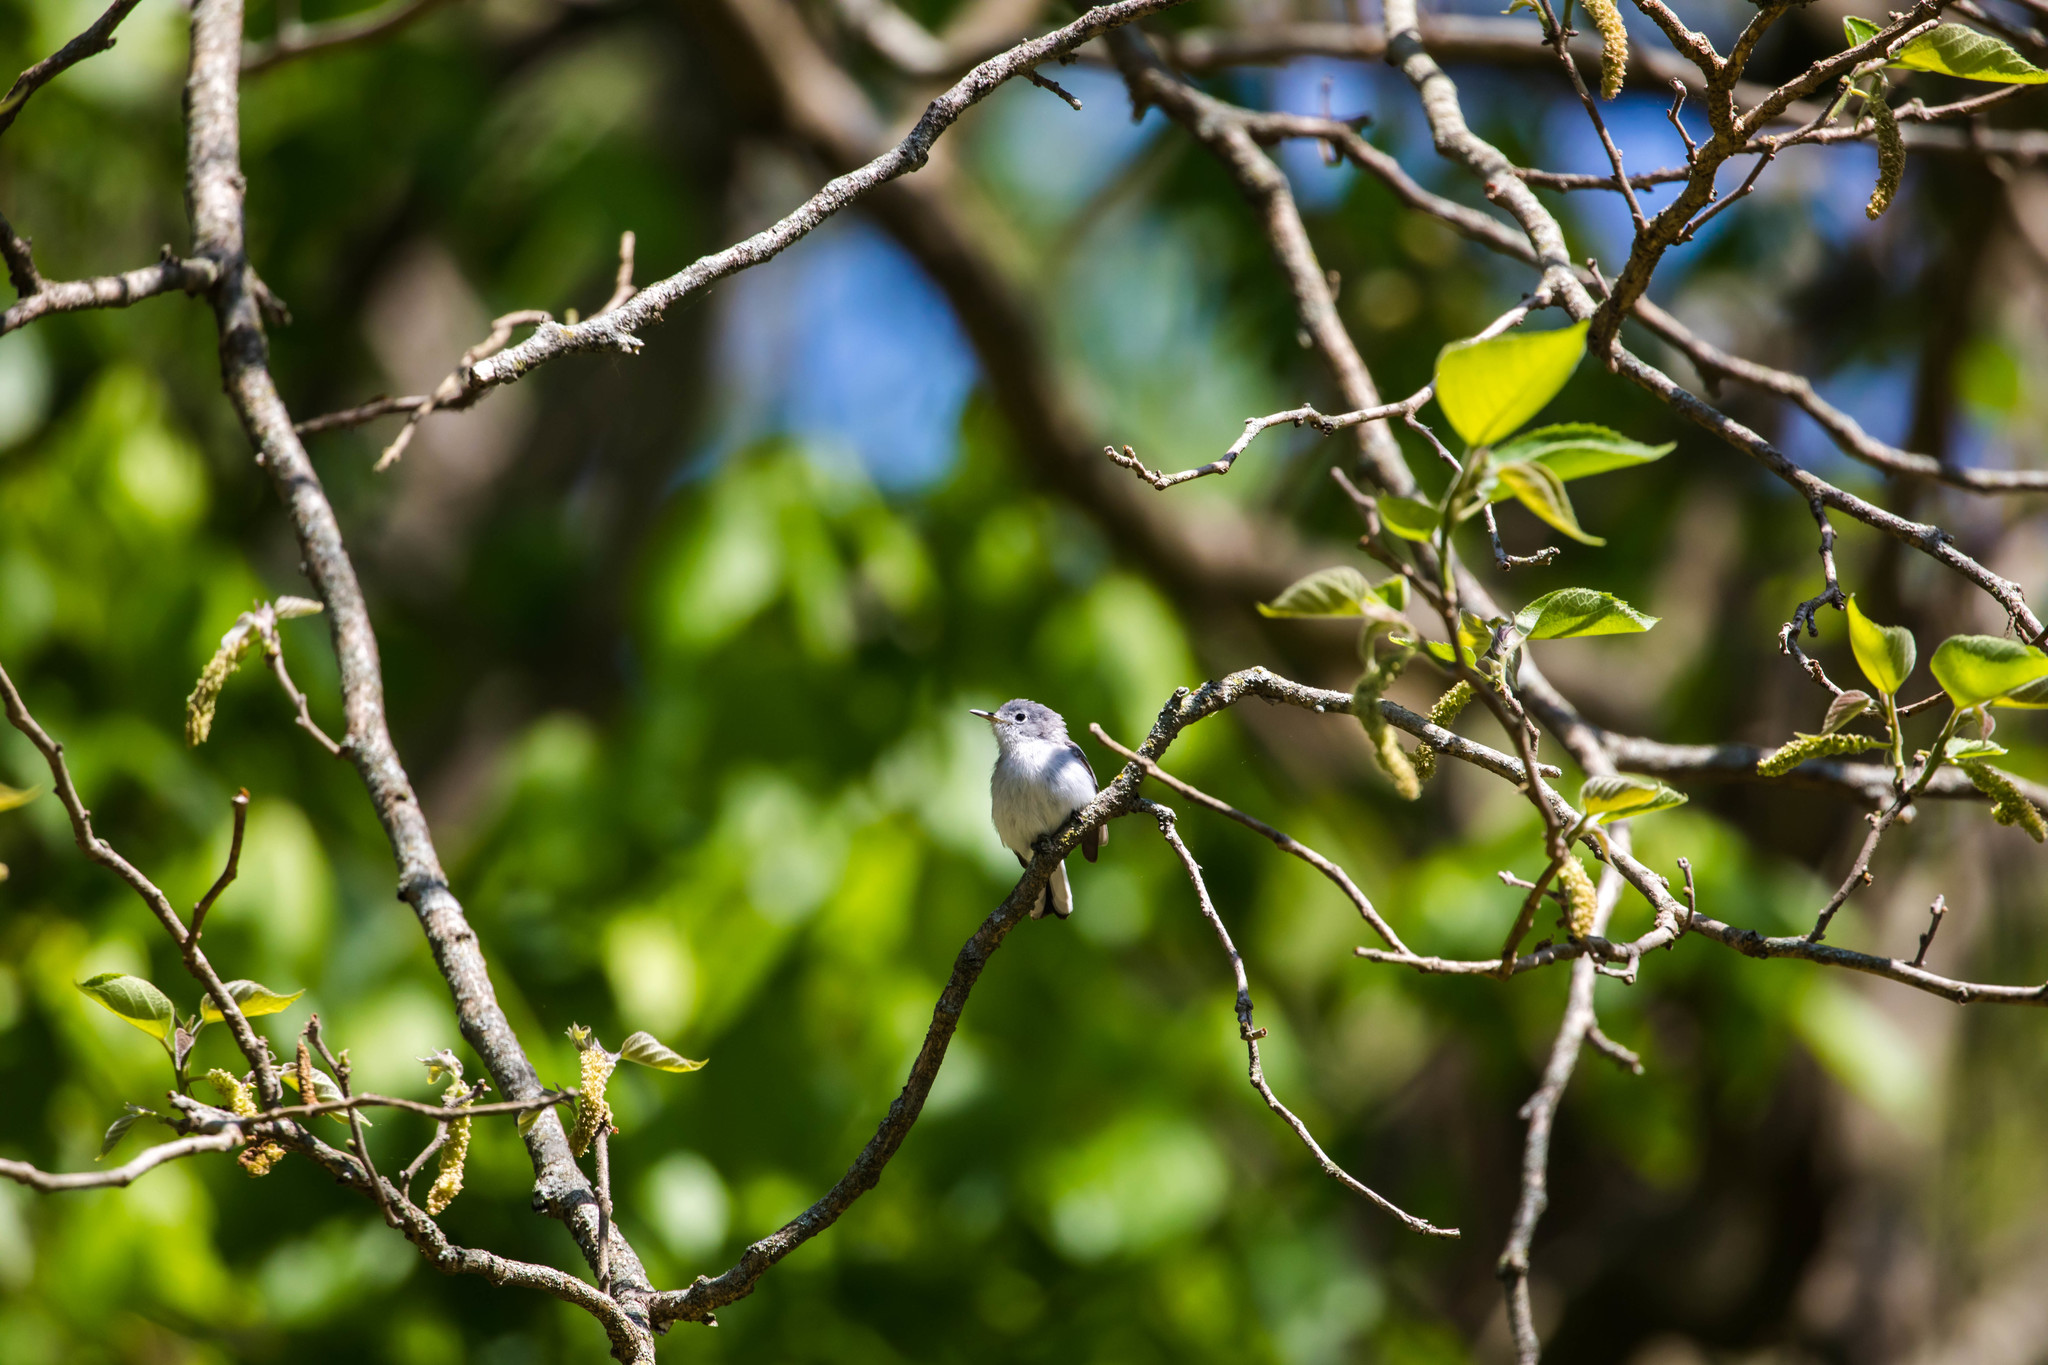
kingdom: Animalia
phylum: Chordata
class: Aves
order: Passeriformes
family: Polioptilidae
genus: Polioptila
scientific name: Polioptila caerulea
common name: Blue-gray gnatcatcher
